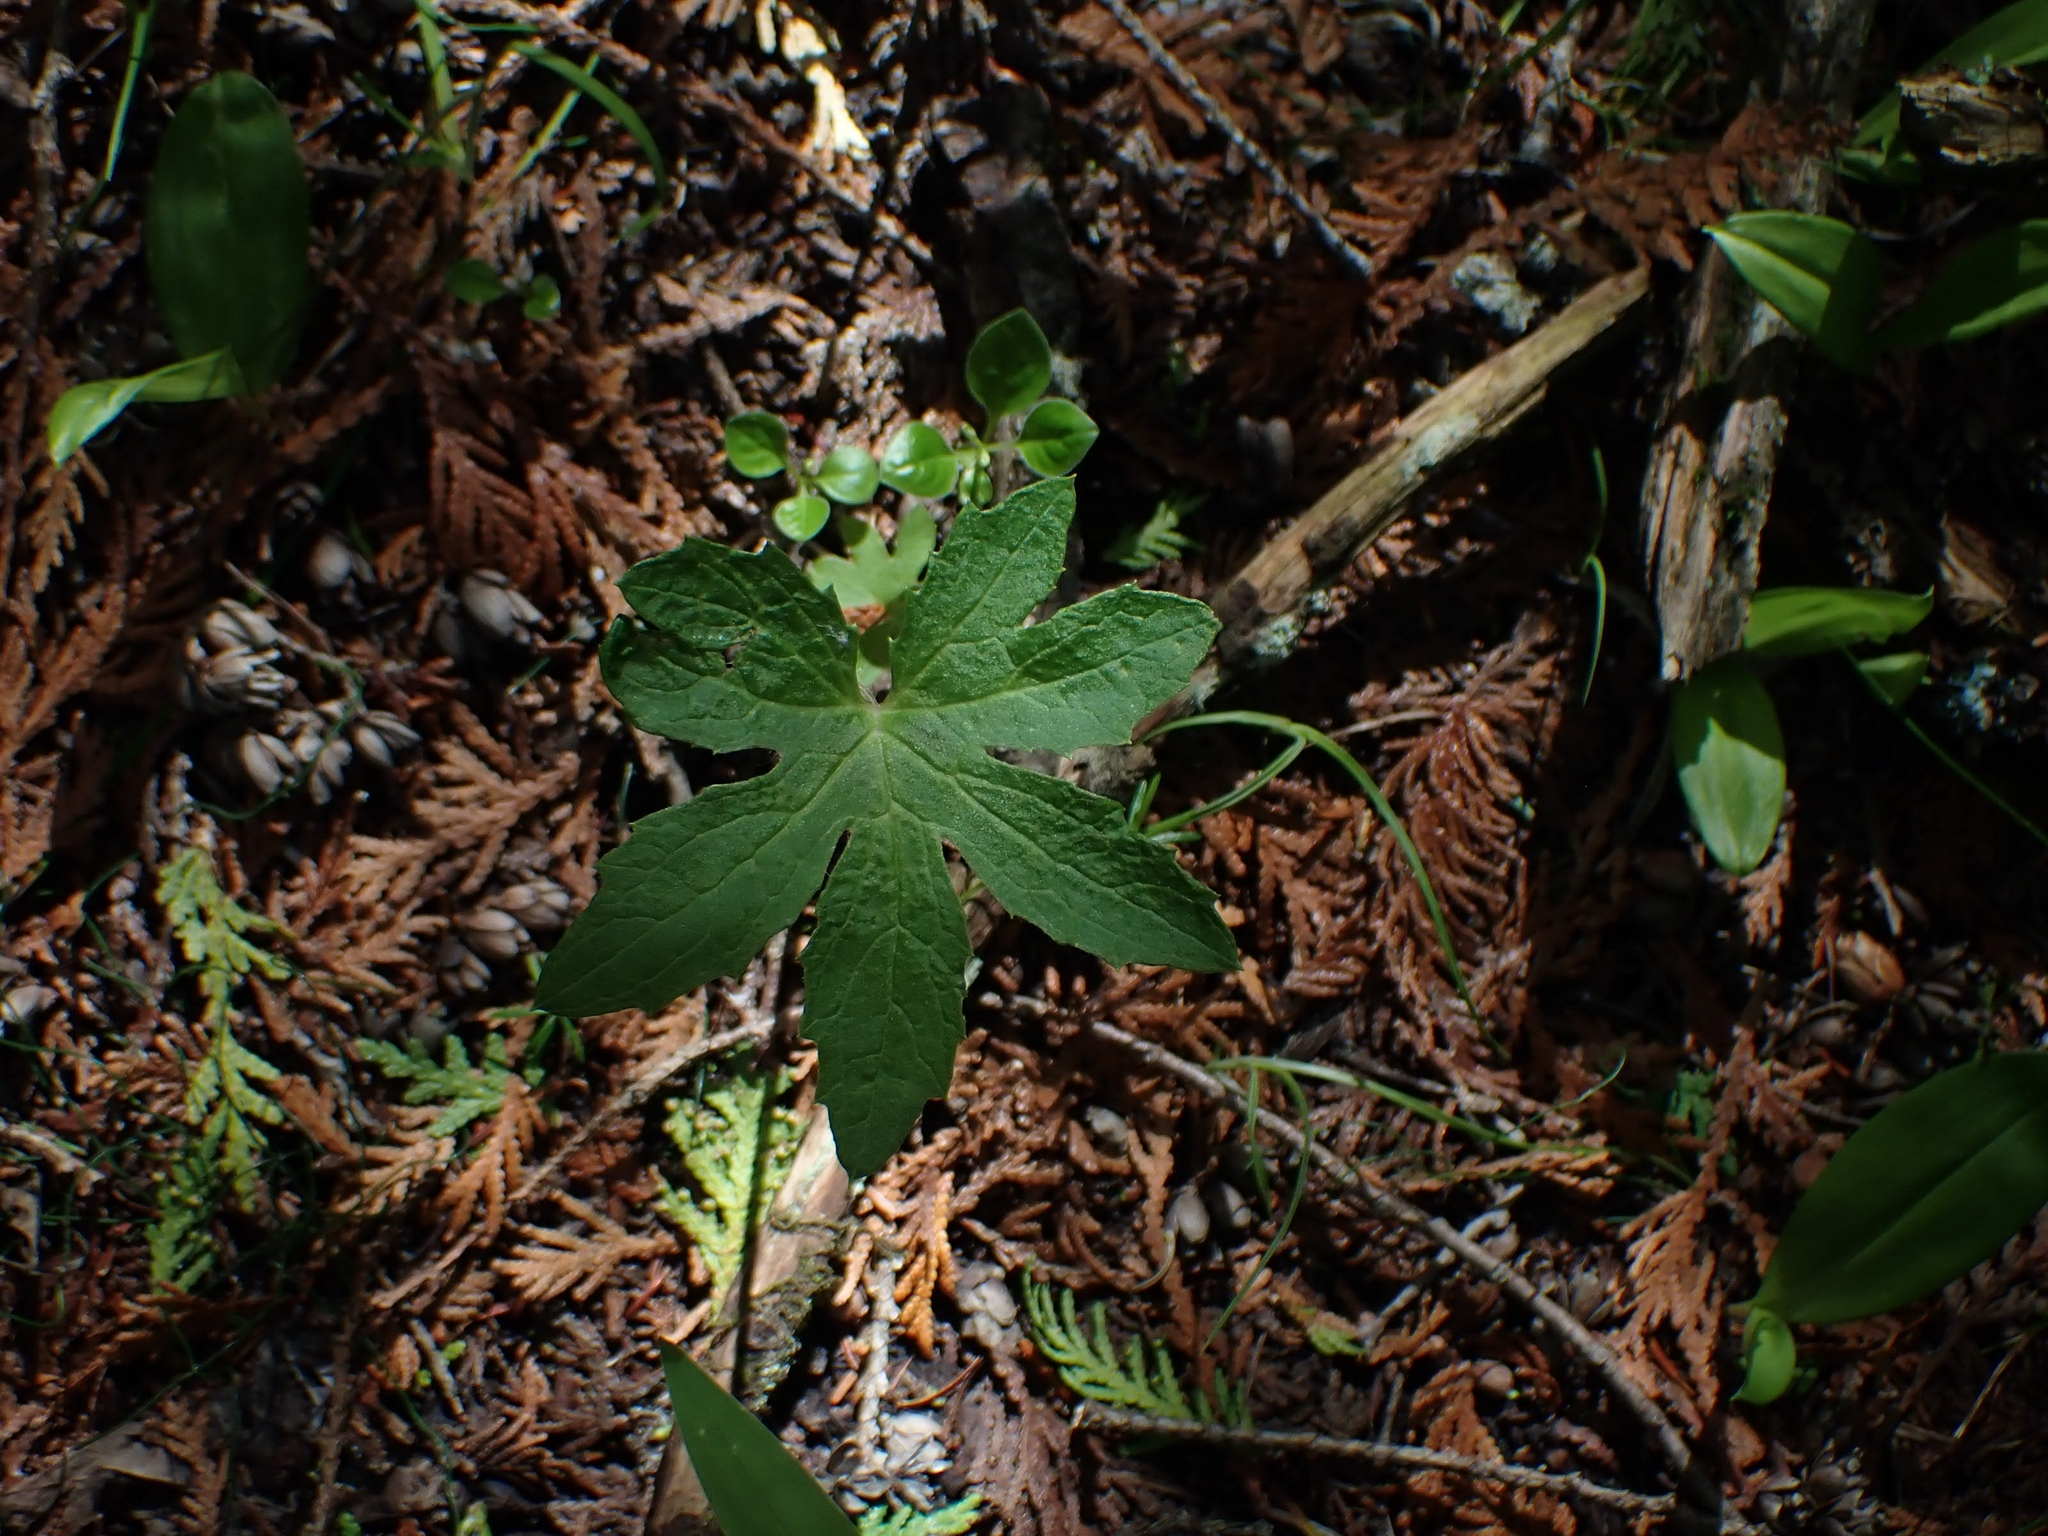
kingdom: Plantae
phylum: Tracheophyta
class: Magnoliopsida
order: Asterales
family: Asteraceae
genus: Petasites
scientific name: Petasites frigidus
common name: Arctic butterbur
